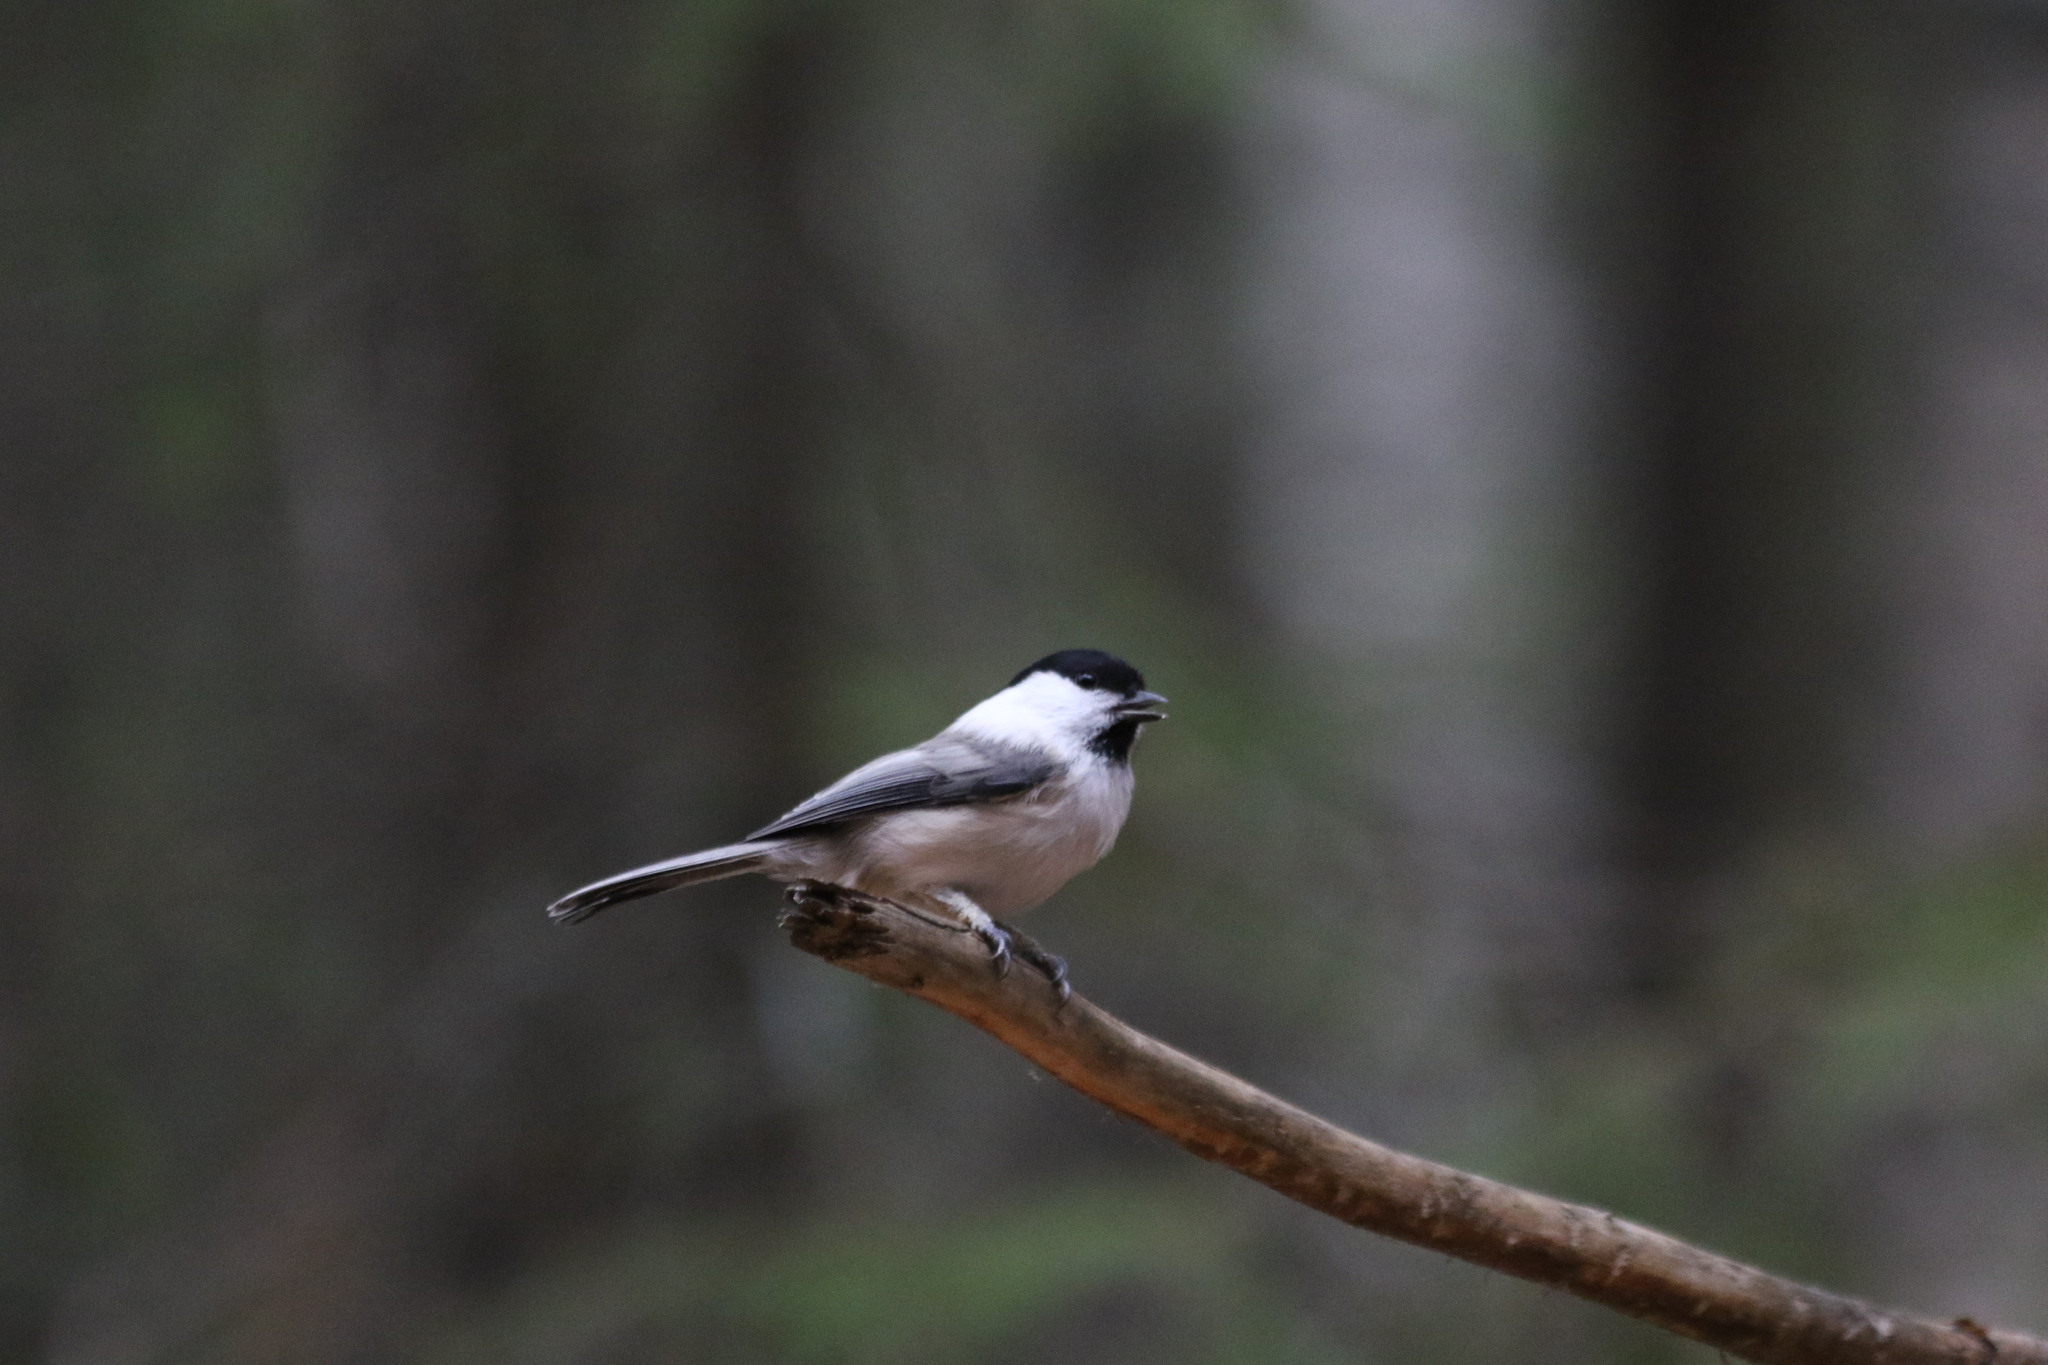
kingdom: Animalia
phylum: Chordata
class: Aves
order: Passeriformes
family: Paridae
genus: Poecile
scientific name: Poecile montanus
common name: Willow tit
